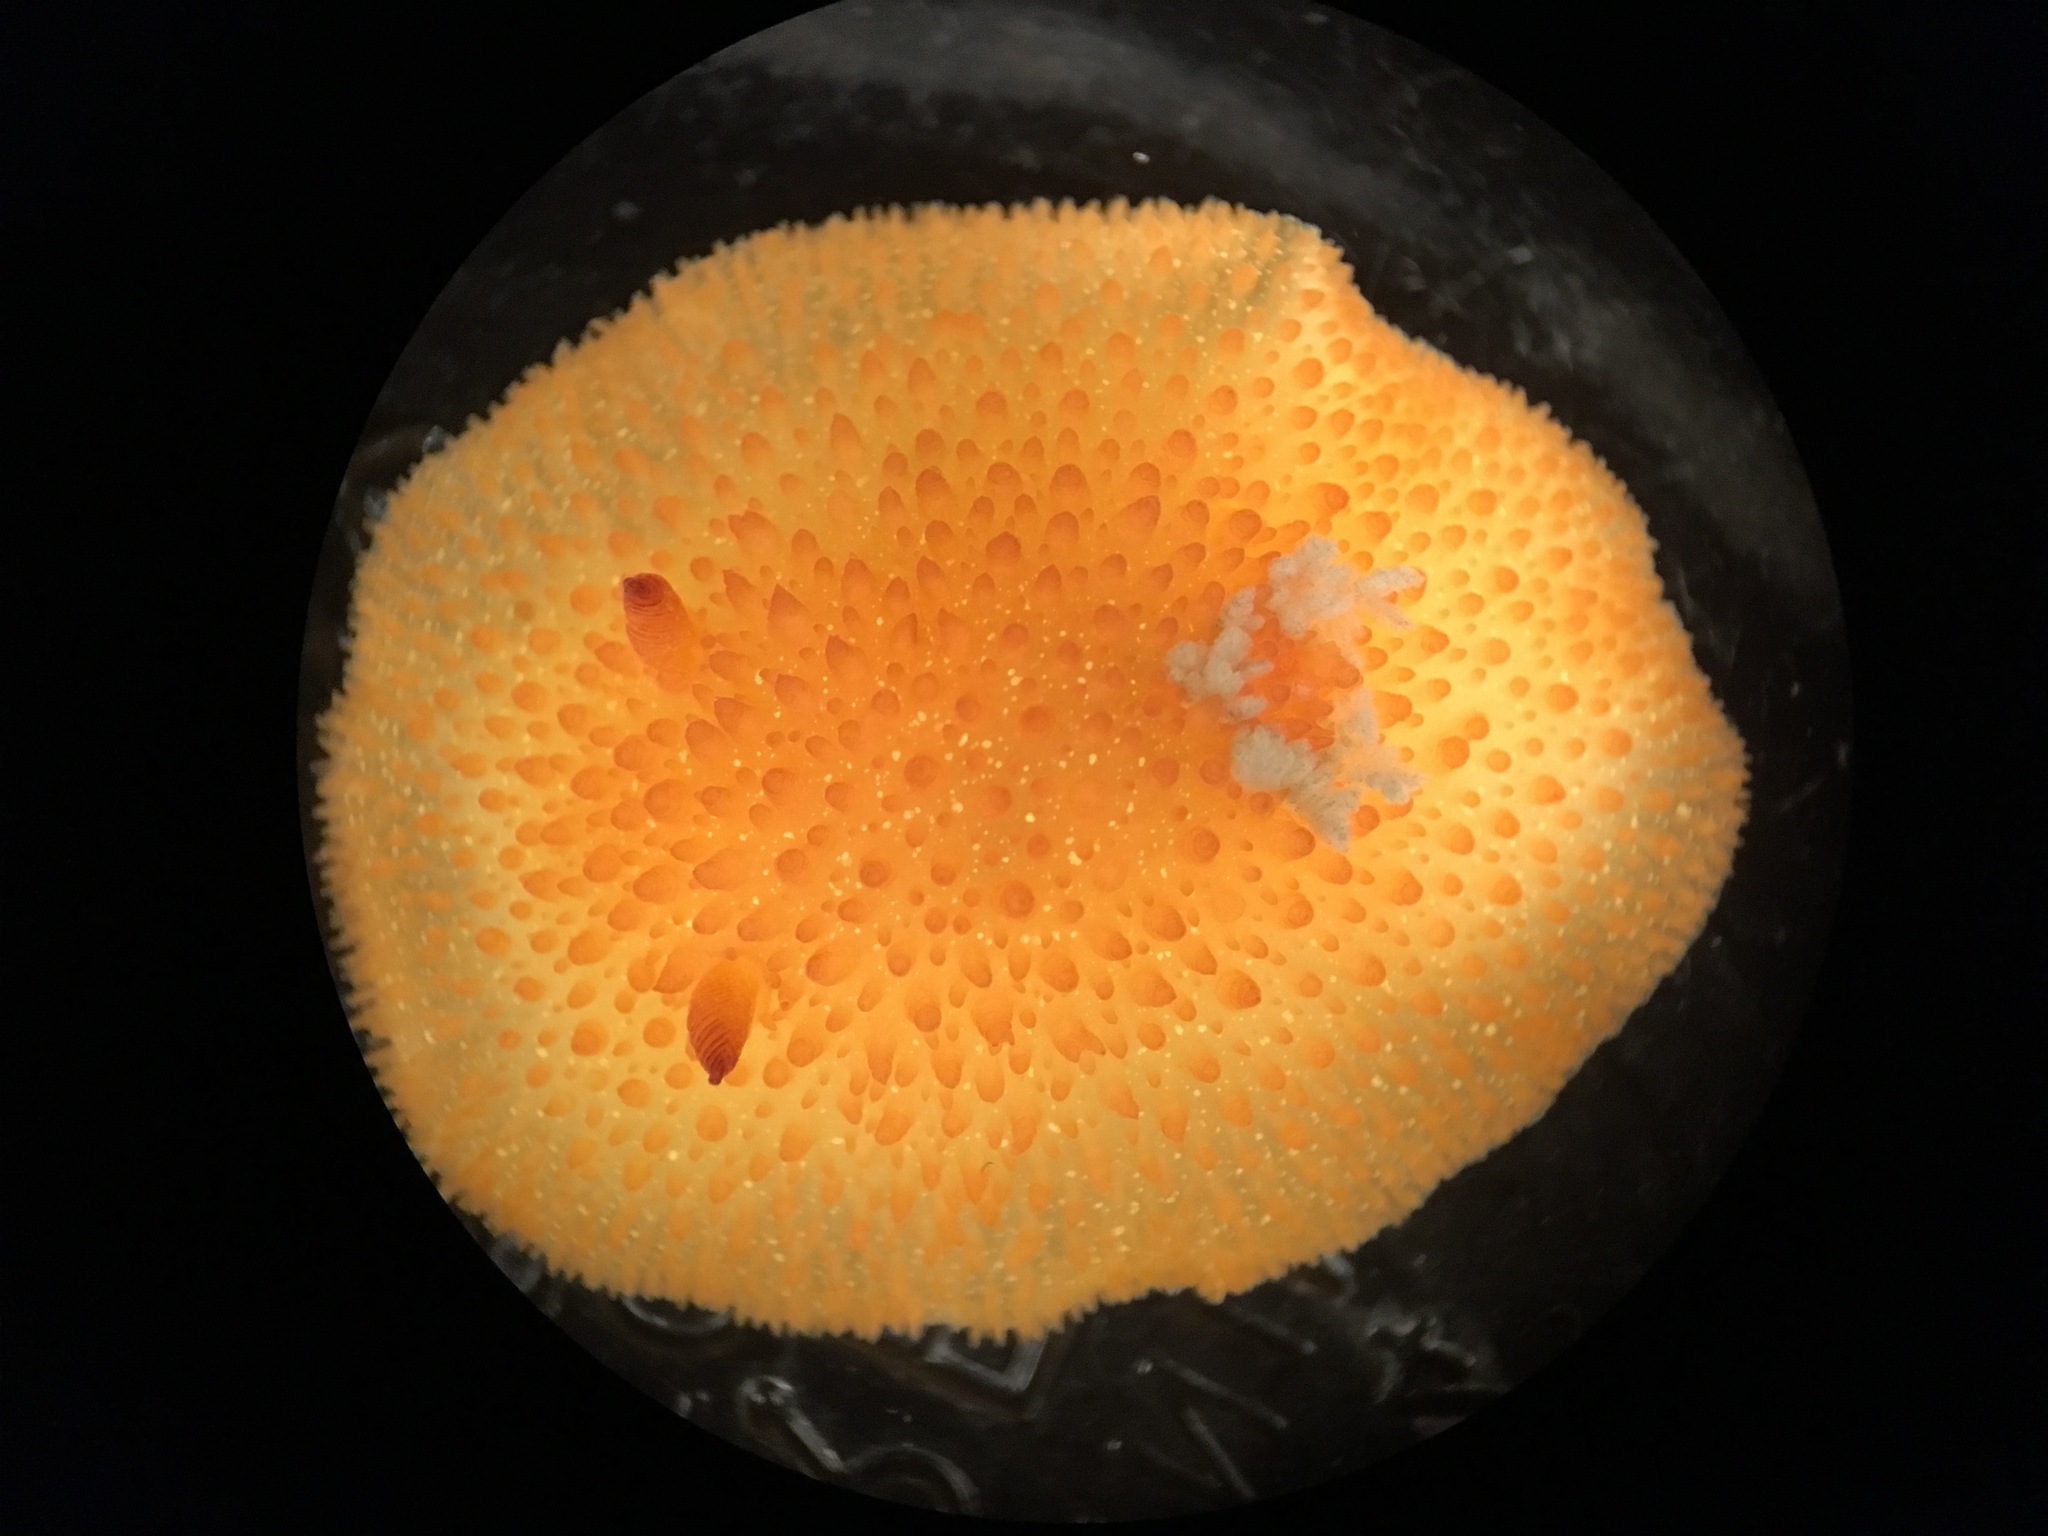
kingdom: Animalia
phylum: Mollusca
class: Gastropoda
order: Nudibranchia
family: Onchidorididae
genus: Acanthodoris
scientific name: Acanthodoris lutea
